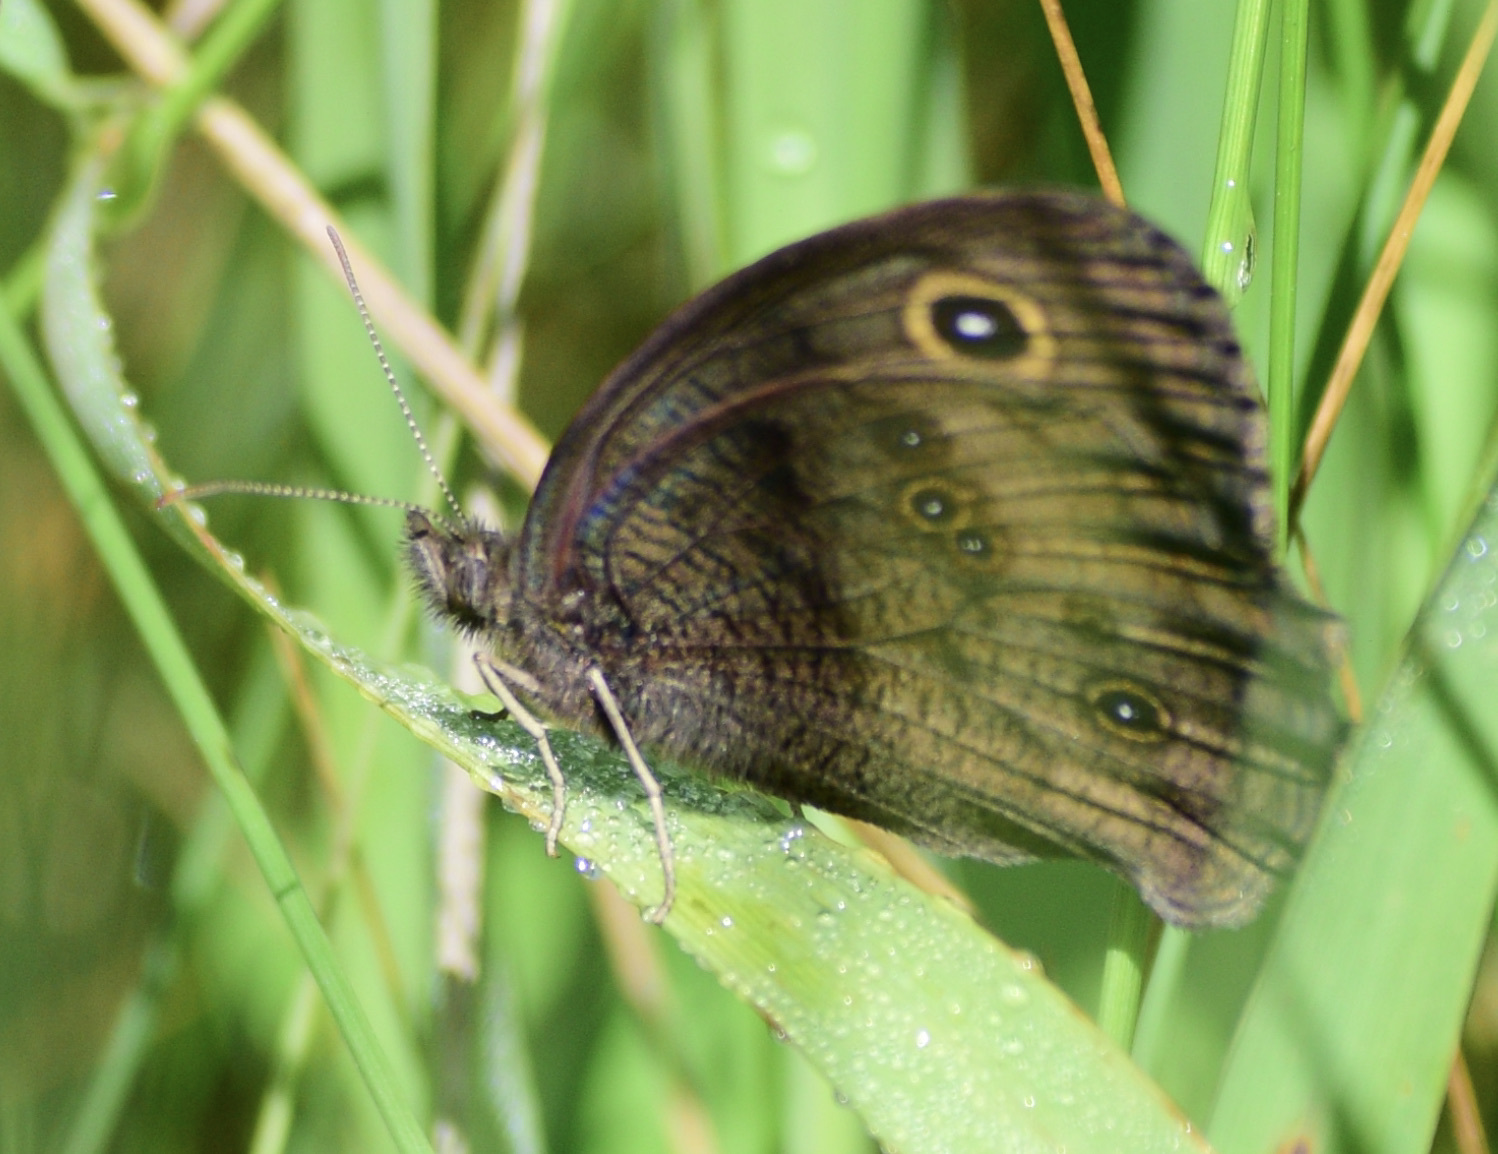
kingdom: Animalia
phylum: Arthropoda
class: Insecta
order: Lepidoptera
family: Nymphalidae
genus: Cercyonis
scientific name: Cercyonis pegala
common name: Common wood-nymph
